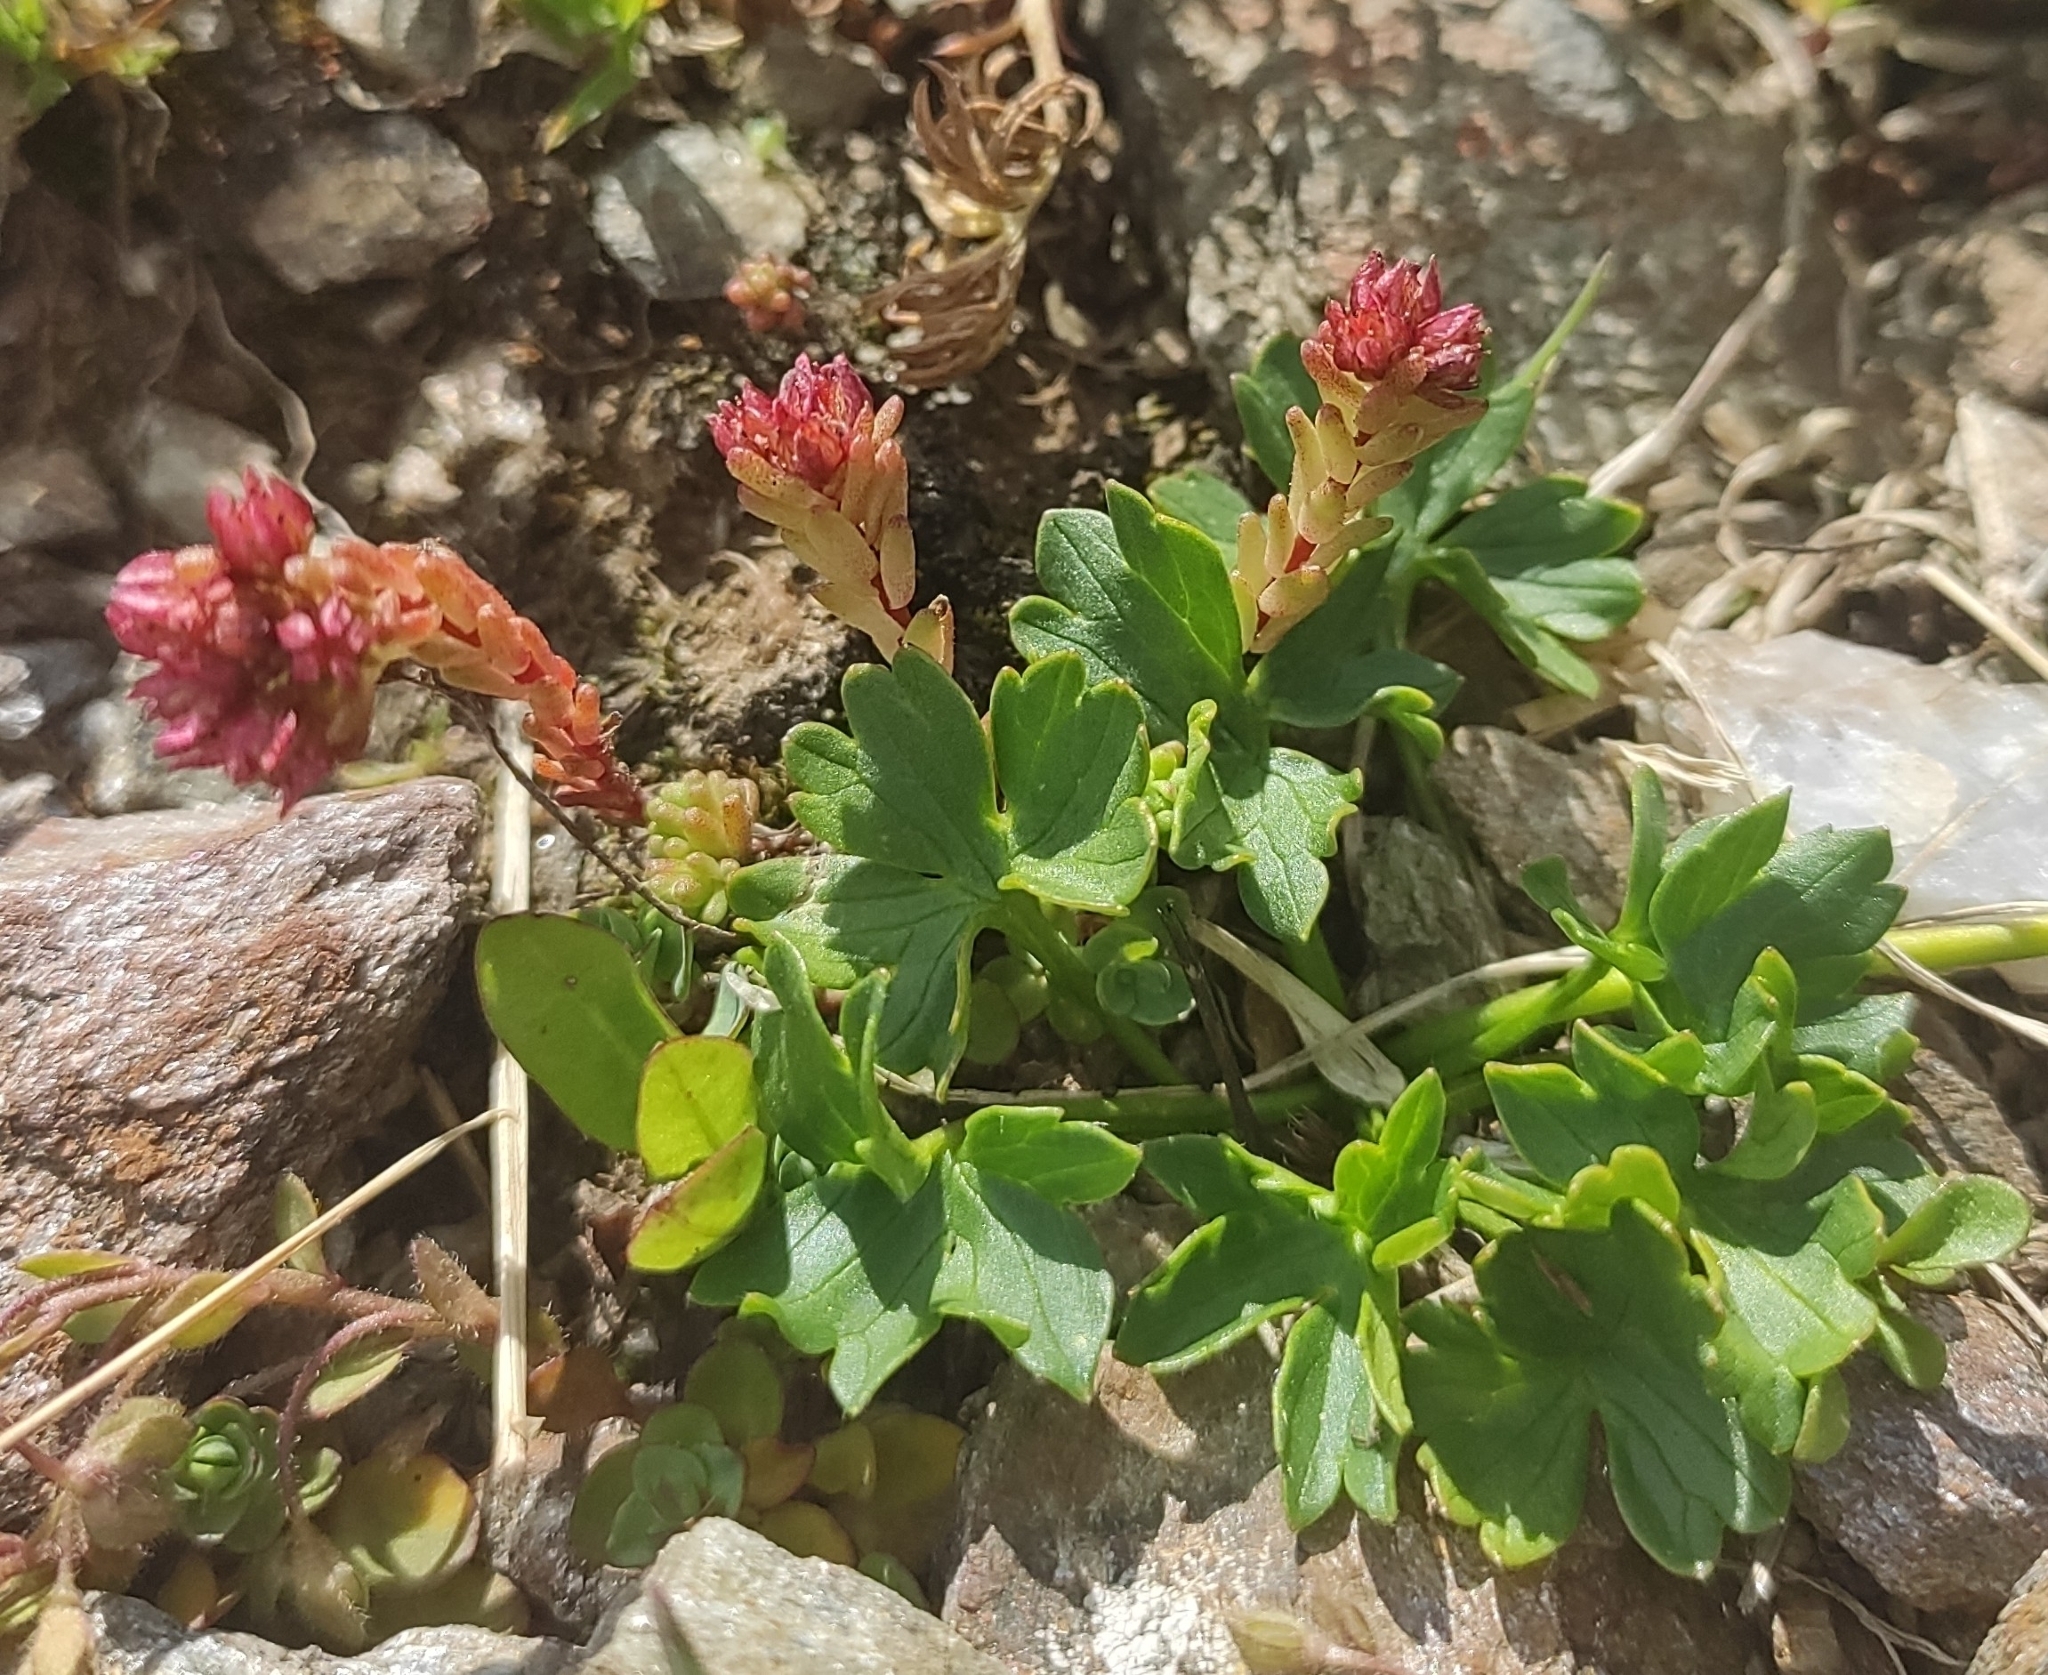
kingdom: Plantae
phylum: Tracheophyta
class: Magnoliopsida
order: Saxifragales
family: Crassulaceae
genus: Sedum
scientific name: Sedum tenellum
